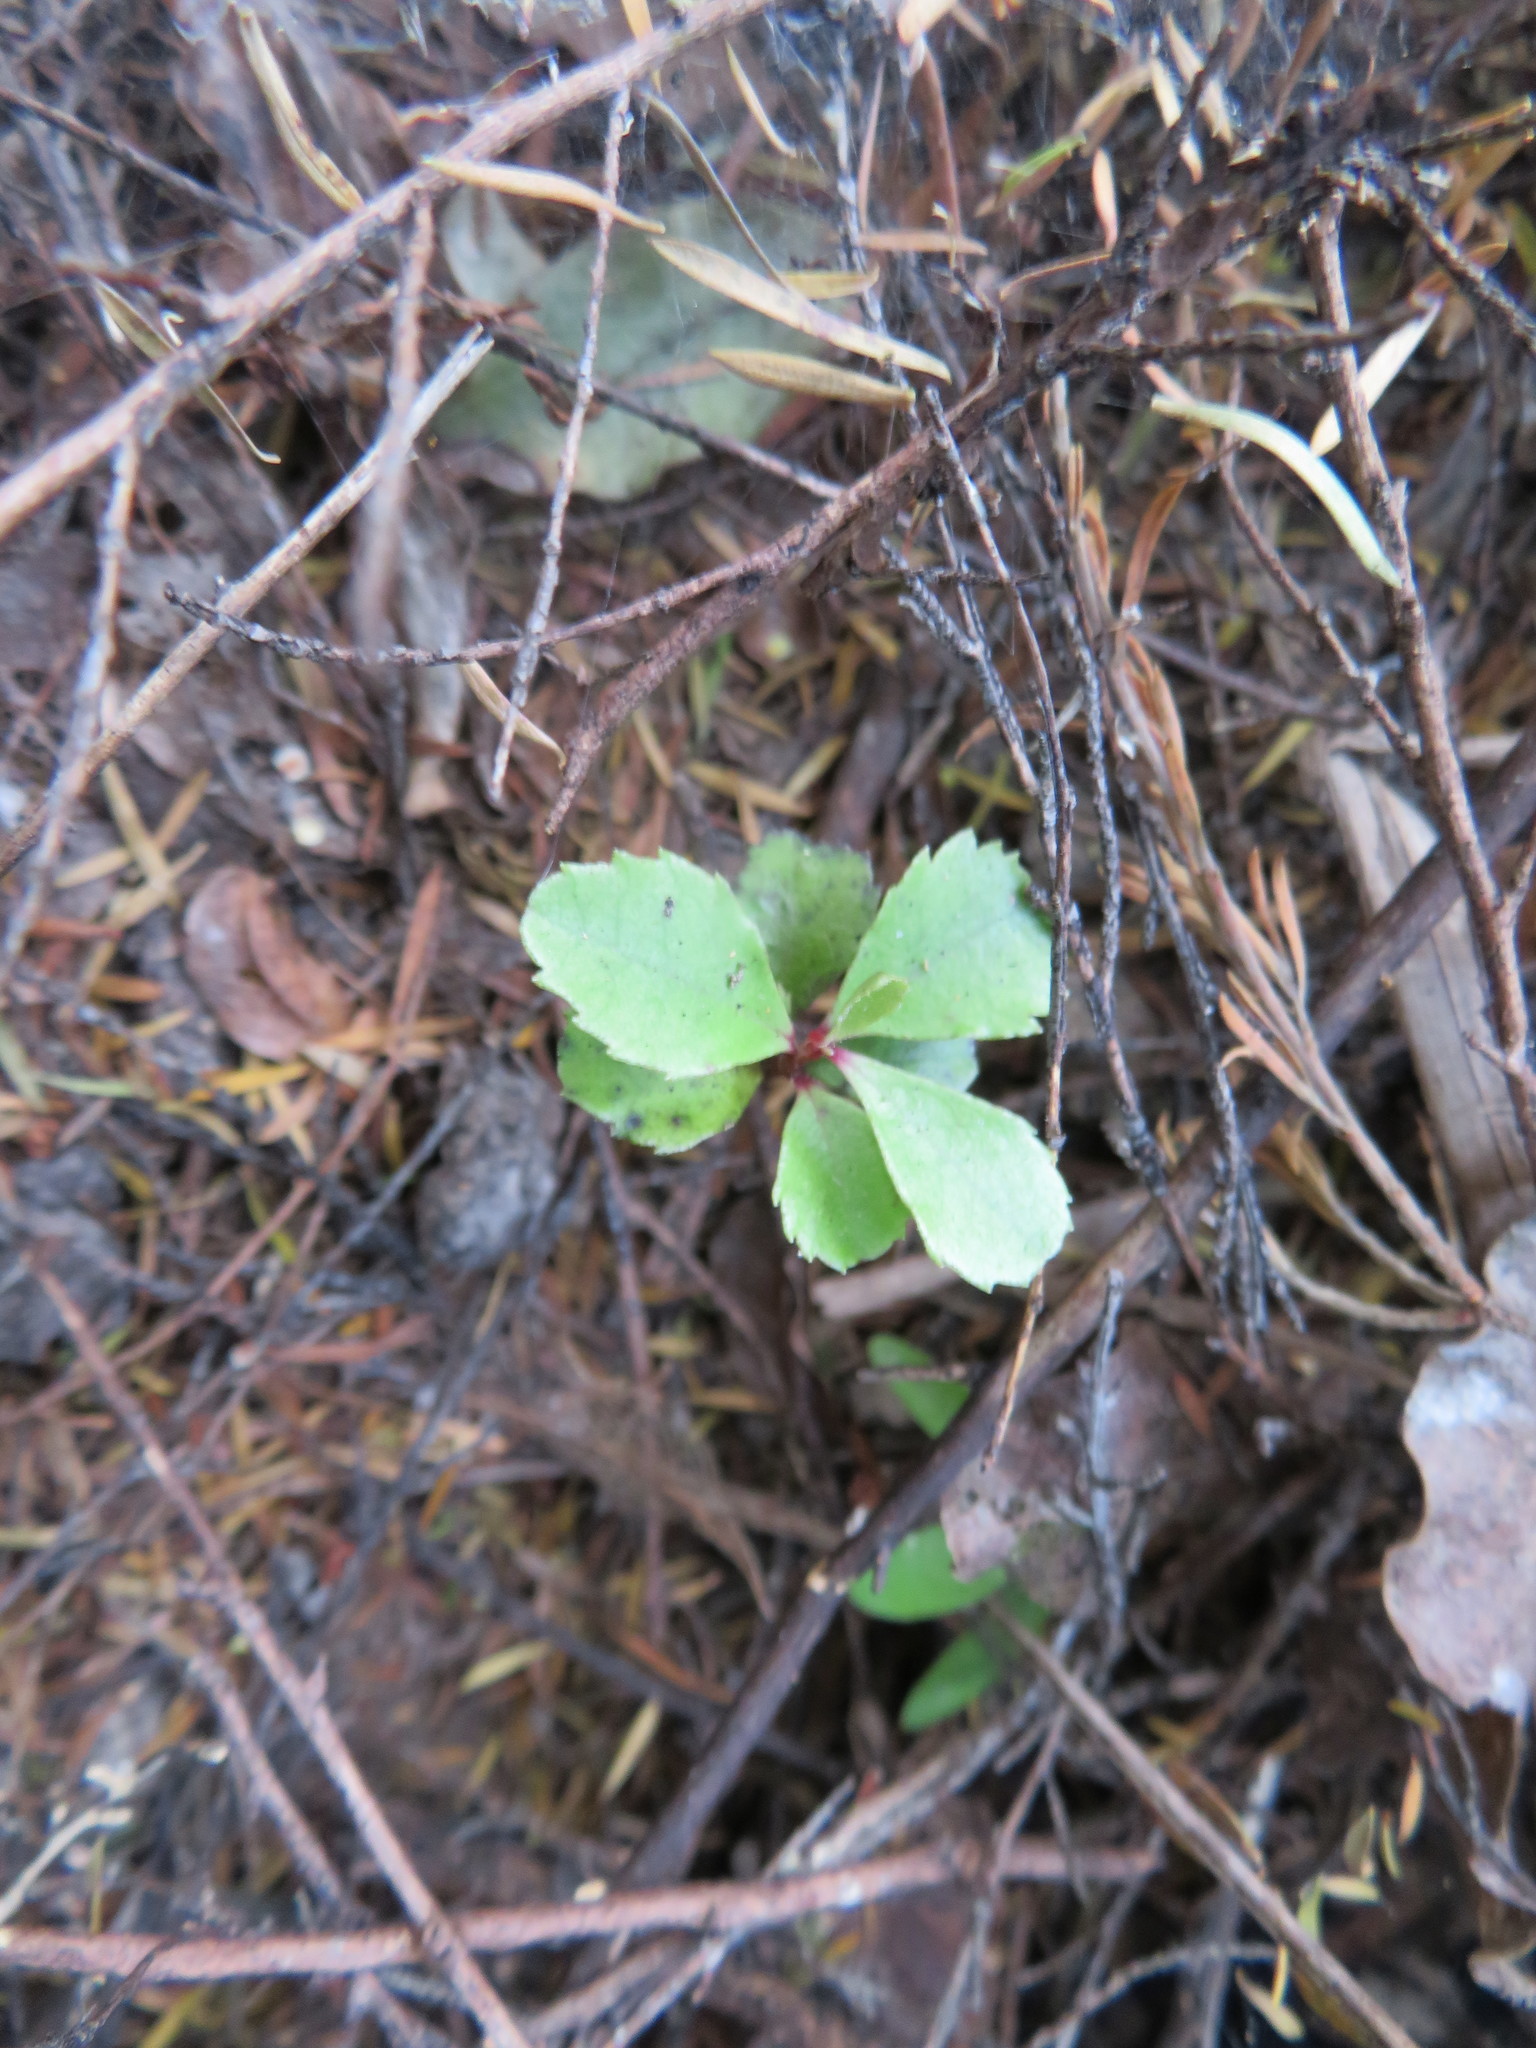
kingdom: Plantae
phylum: Tracheophyta
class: Magnoliopsida
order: Ericales
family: Primulaceae
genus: Myrsine
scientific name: Myrsine australis
